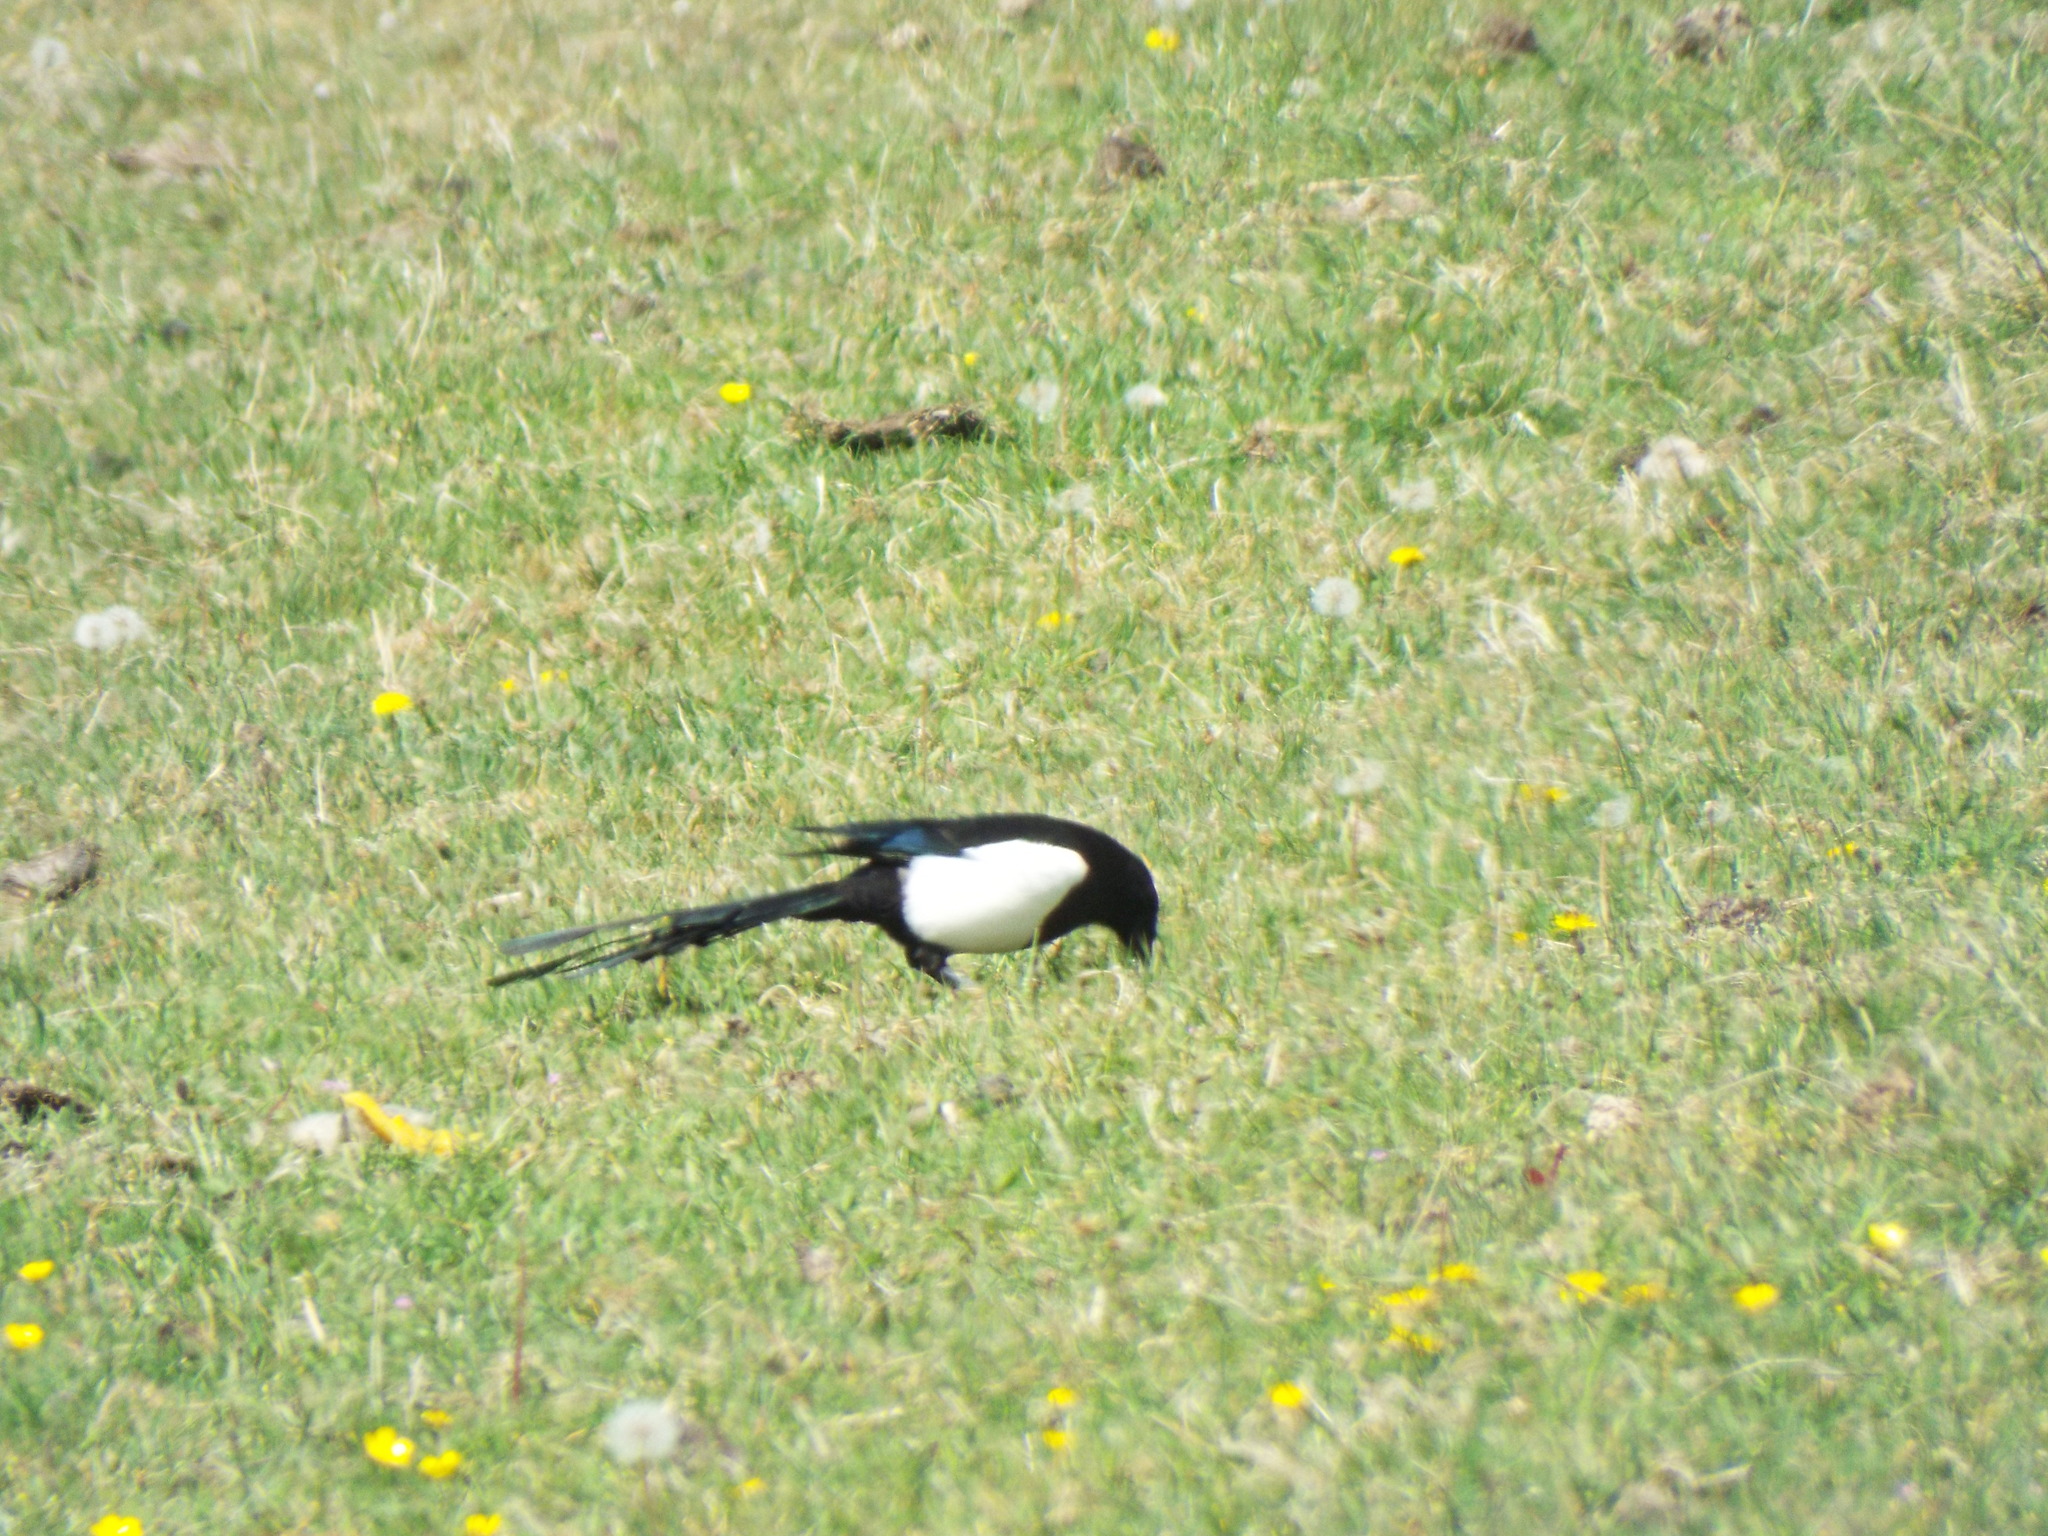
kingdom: Animalia
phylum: Chordata
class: Aves
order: Passeriformes
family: Corvidae
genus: Pica
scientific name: Pica pica
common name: Eurasian magpie
